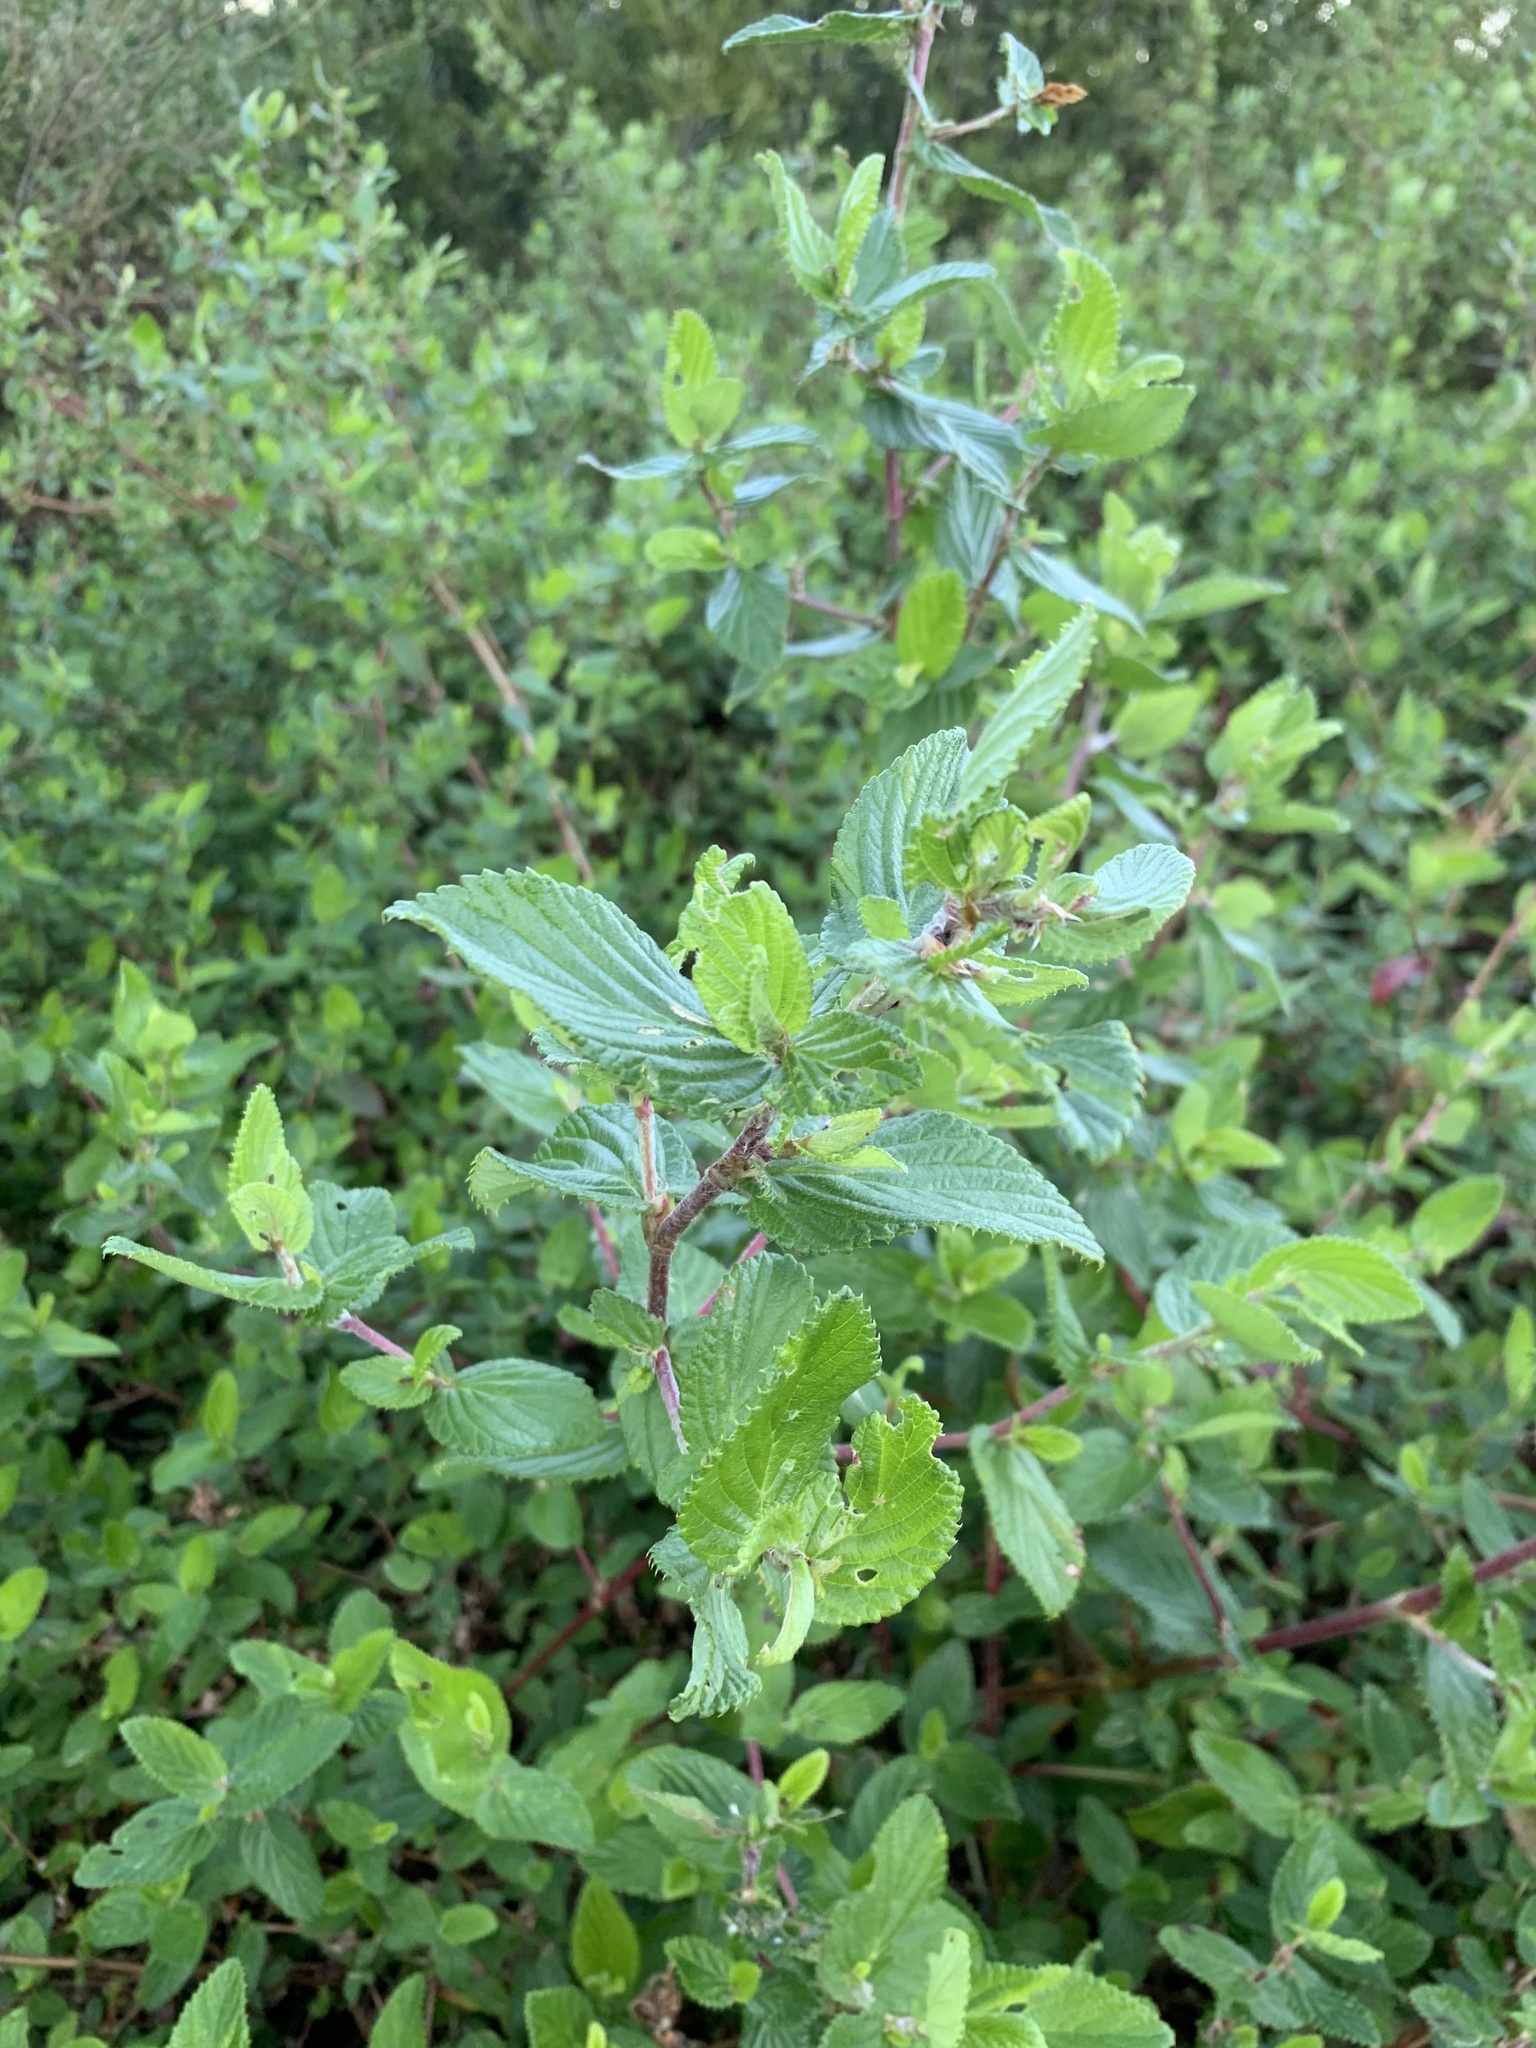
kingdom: Plantae
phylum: Tracheophyta
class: Magnoliopsida
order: Rosales
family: Rosaceae
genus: Cliffortia
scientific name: Cliffortia odorata
